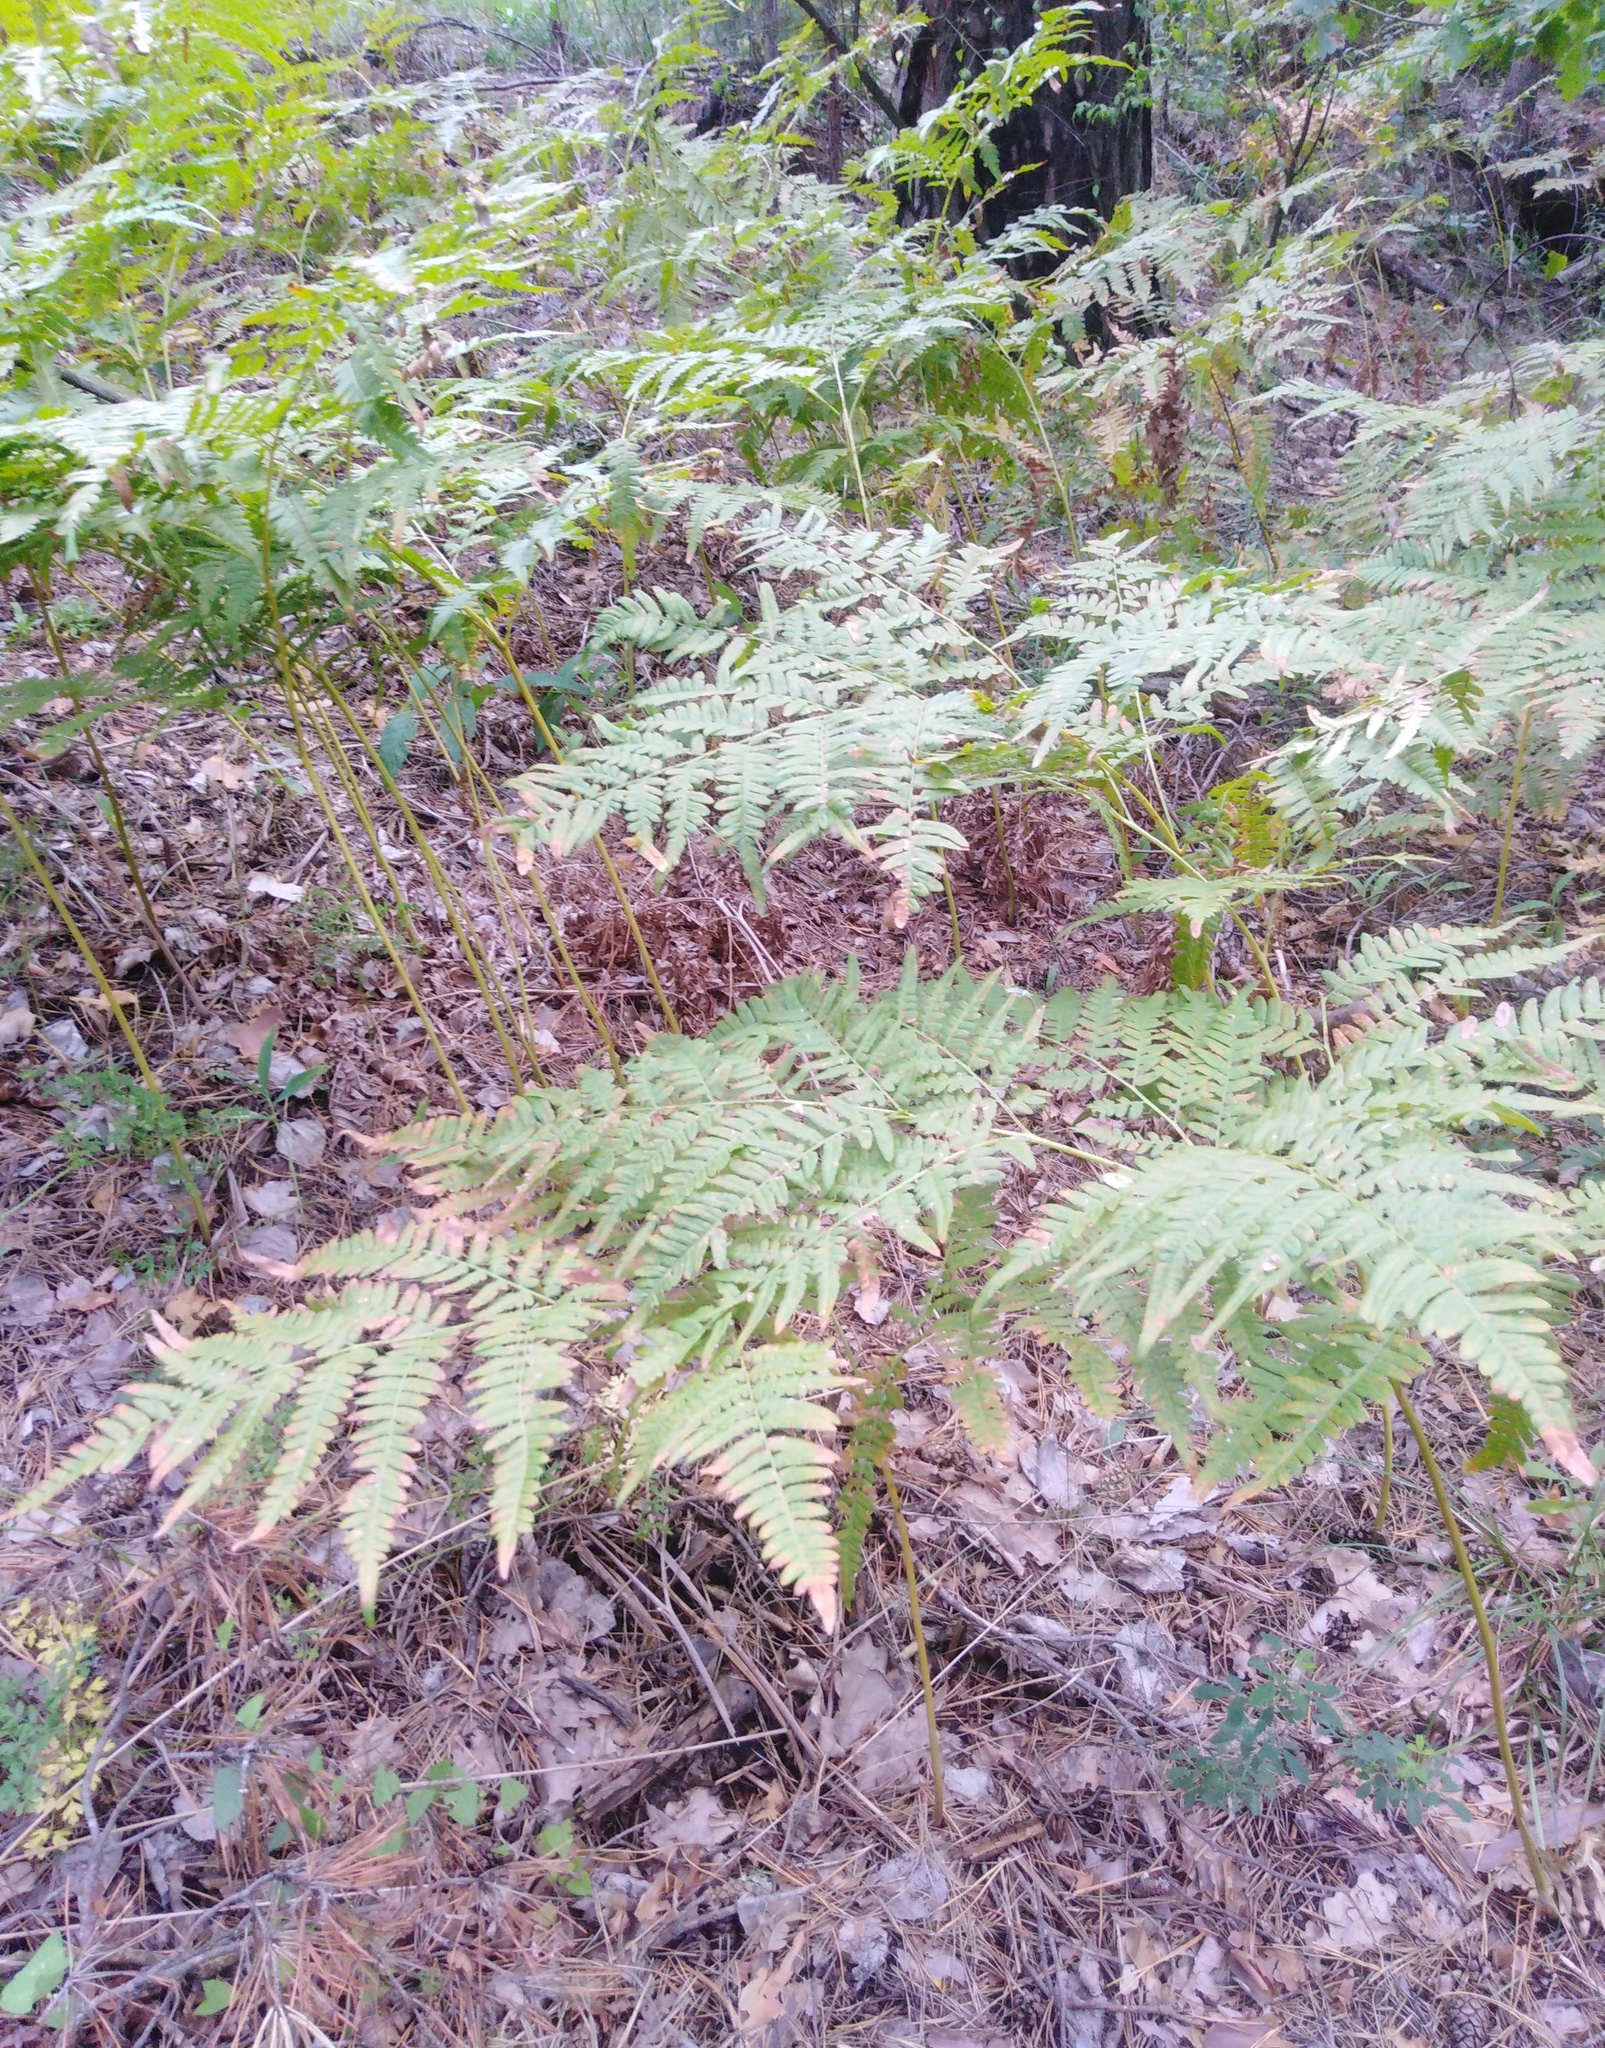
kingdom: Plantae
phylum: Tracheophyta
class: Polypodiopsida
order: Polypodiales
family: Dennstaedtiaceae
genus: Pteridium
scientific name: Pteridium aquilinum
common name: Bracken
